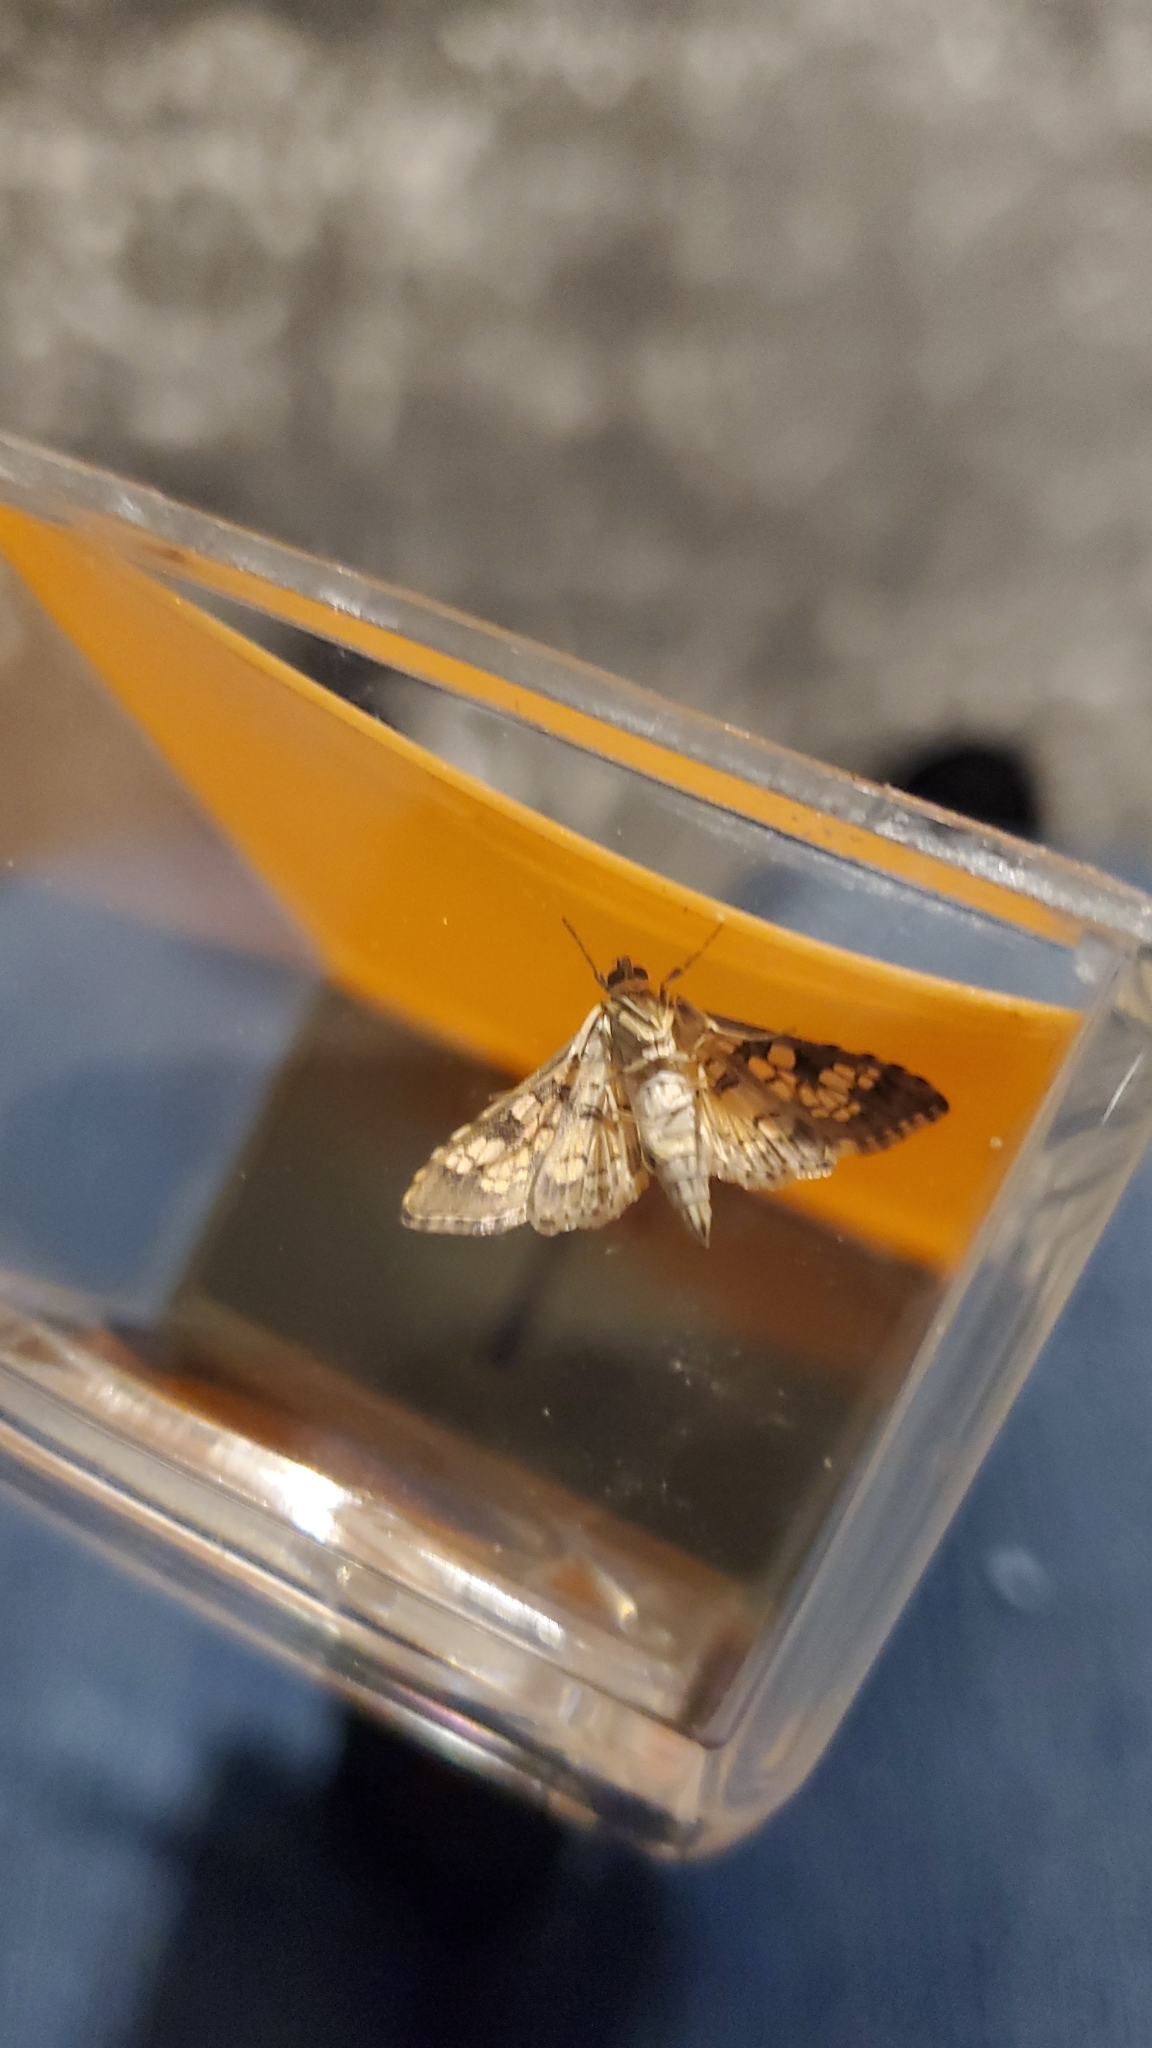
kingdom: Animalia
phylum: Arthropoda
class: Insecta
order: Lepidoptera
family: Crambidae
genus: Samea
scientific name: Samea ecclesialis
